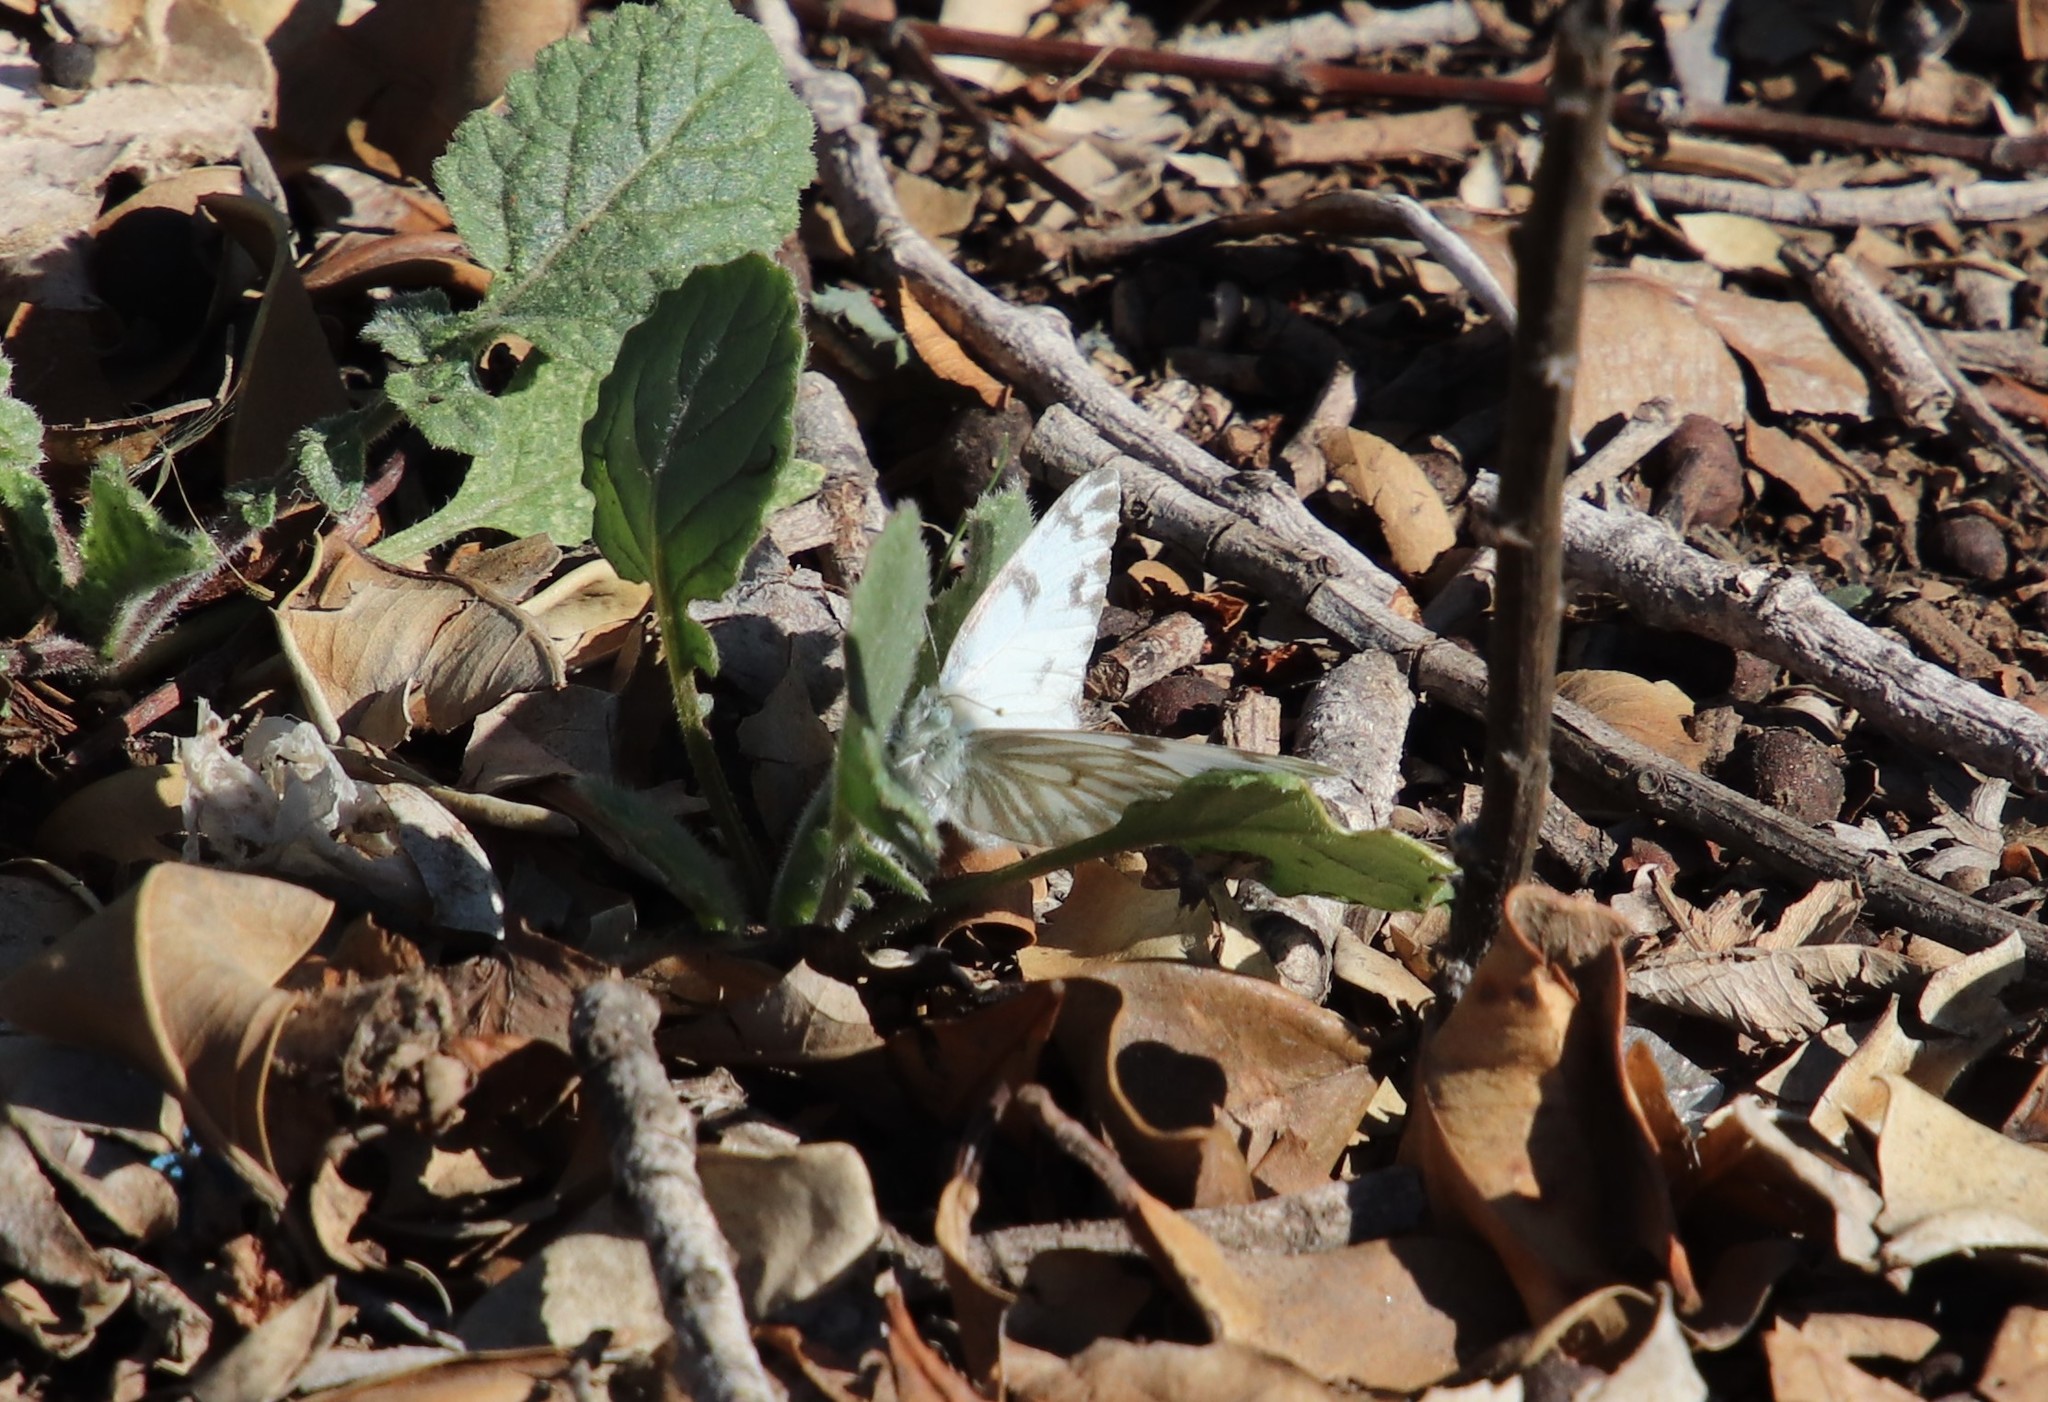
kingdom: Animalia
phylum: Arthropoda
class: Insecta
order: Lepidoptera
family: Pieridae
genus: Pontia
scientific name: Pontia protodice
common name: Checkered white
